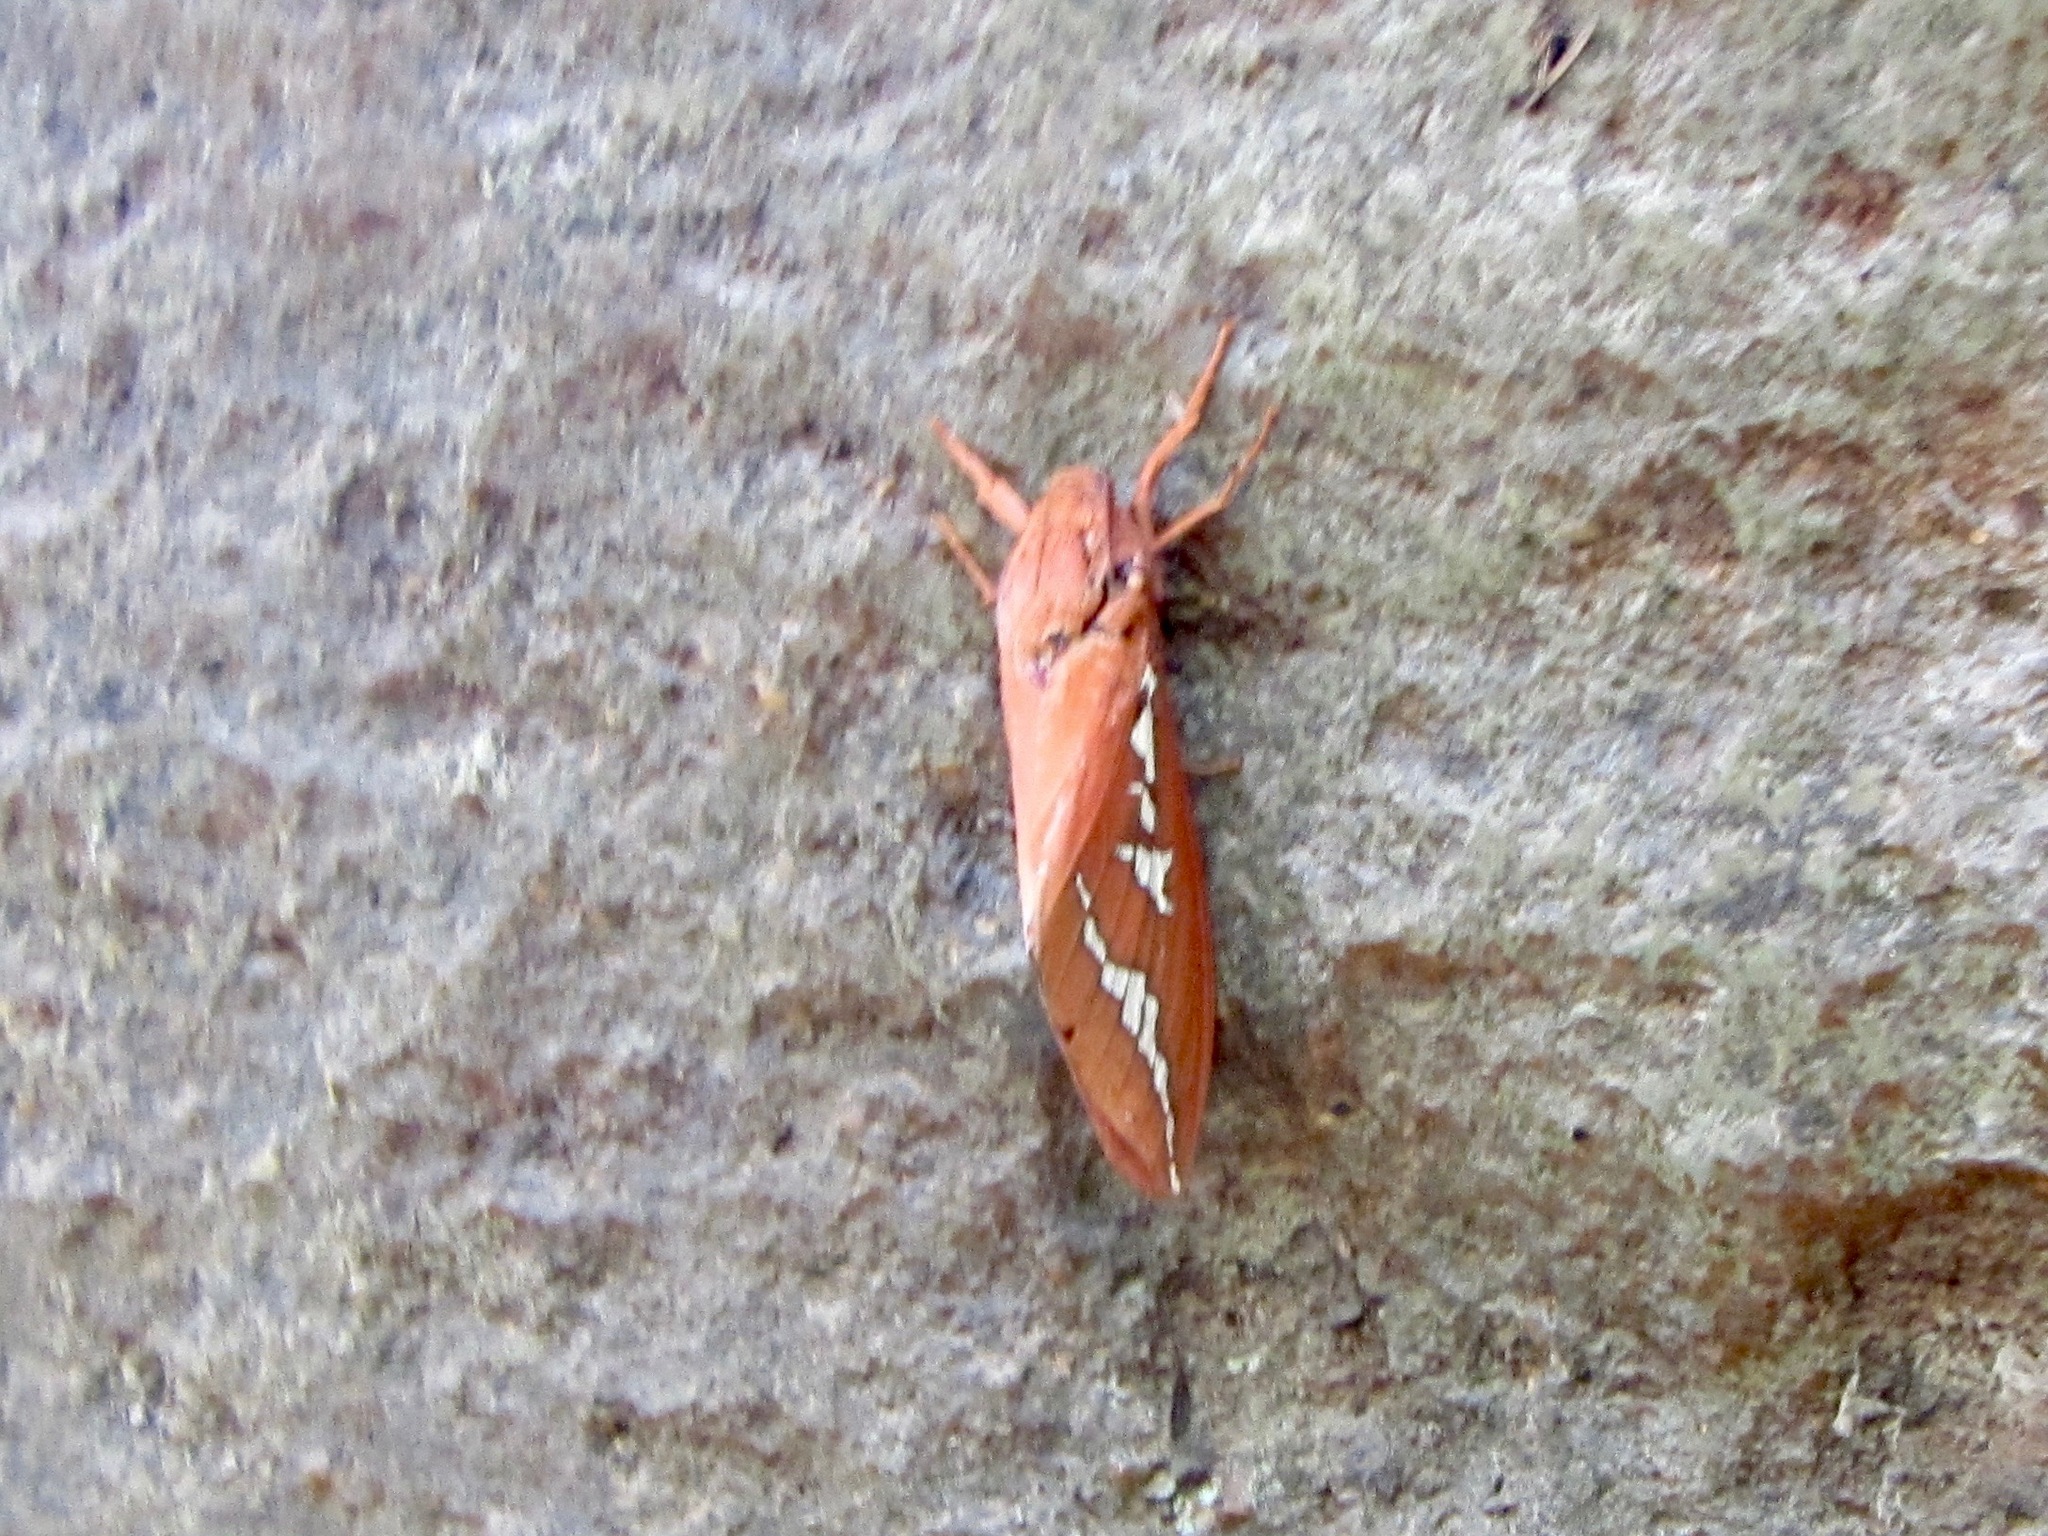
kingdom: Animalia
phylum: Arthropoda
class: Insecta
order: Lepidoptera
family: Hepialidae
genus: Abantiades
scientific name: Abantiades hyalinatus
